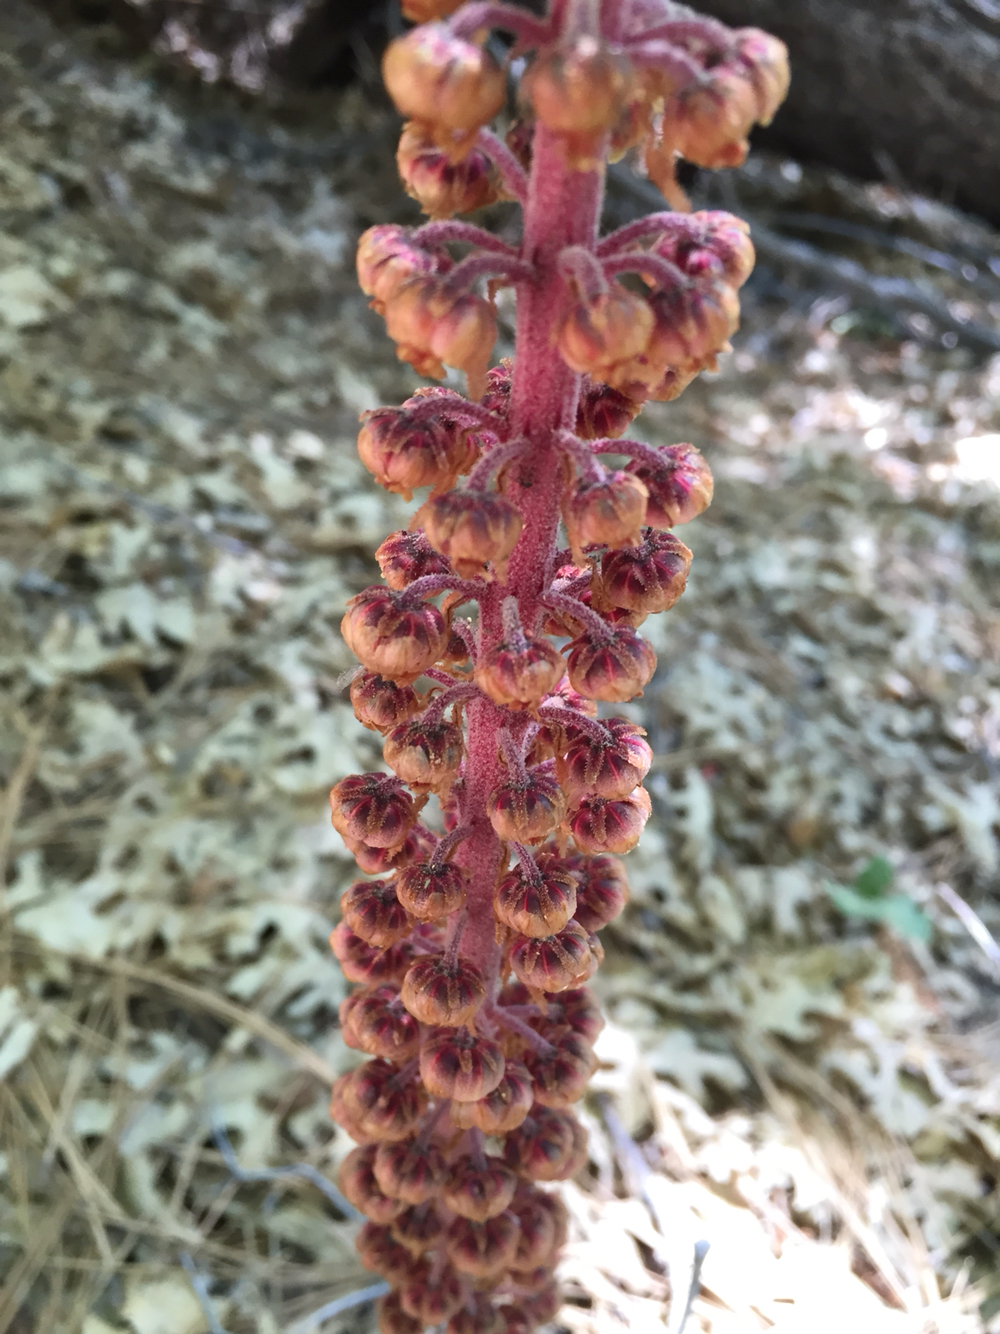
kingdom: Plantae
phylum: Tracheophyta
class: Magnoliopsida
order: Ericales
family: Ericaceae
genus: Pterospora
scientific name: Pterospora andromedea
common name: Giant bird's-nest
